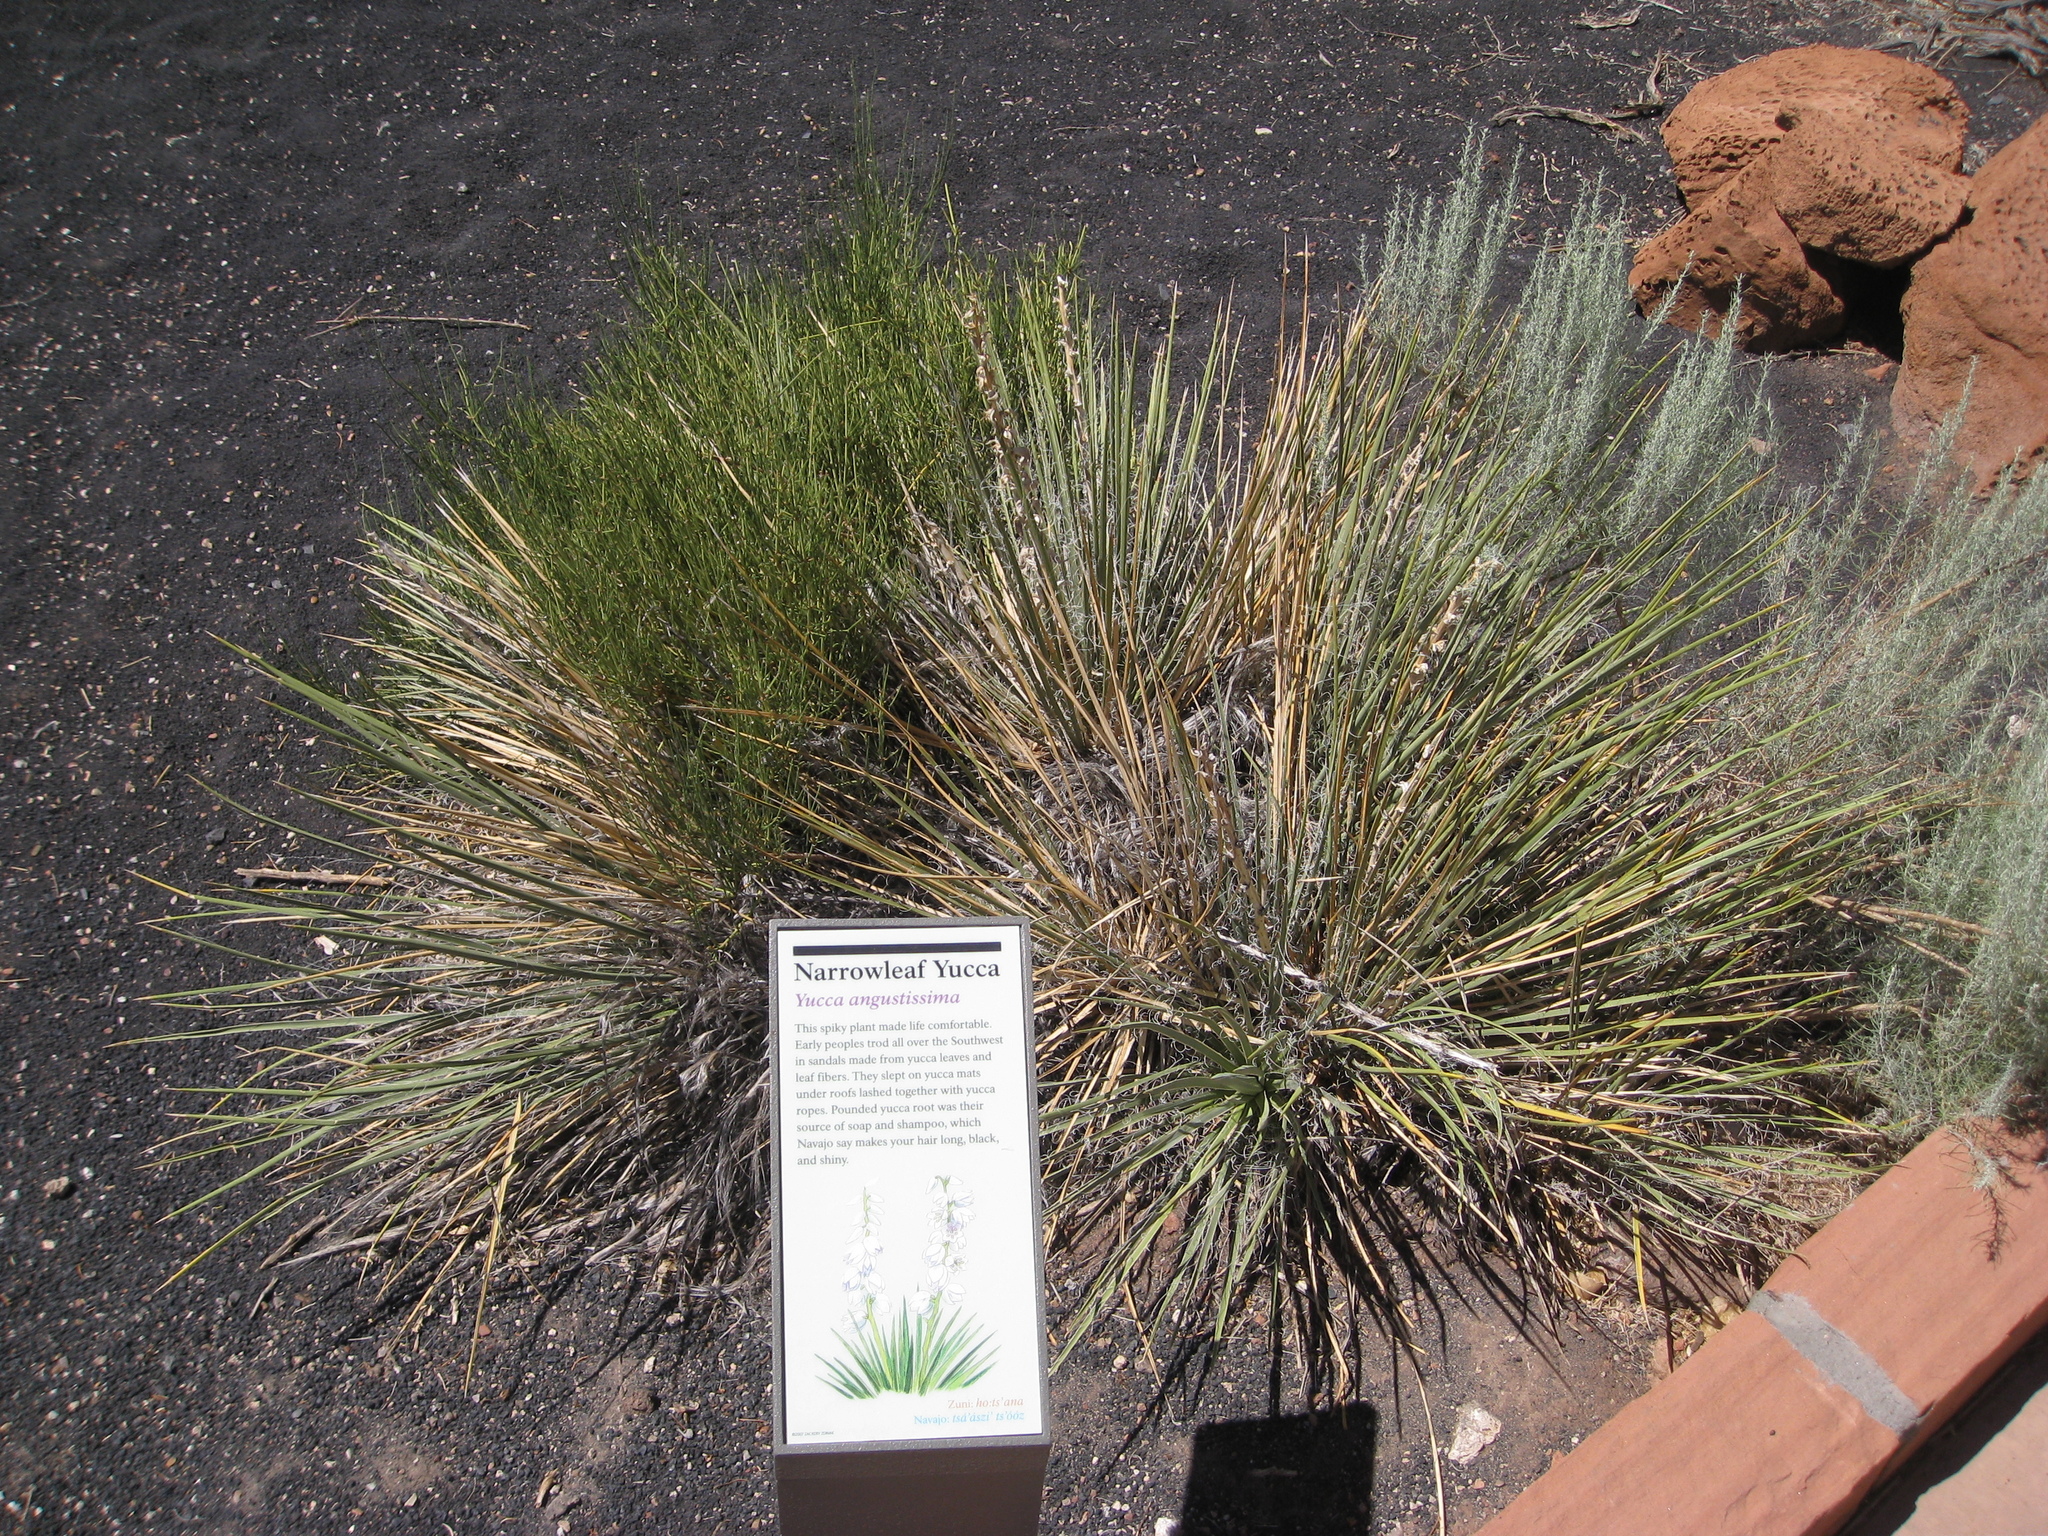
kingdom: Plantae
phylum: Tracheophyta
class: Liliopsida
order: Asparagales
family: Asparagaceae
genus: Yucca
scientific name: Yucca angustissima
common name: Narrowleaf yucca
